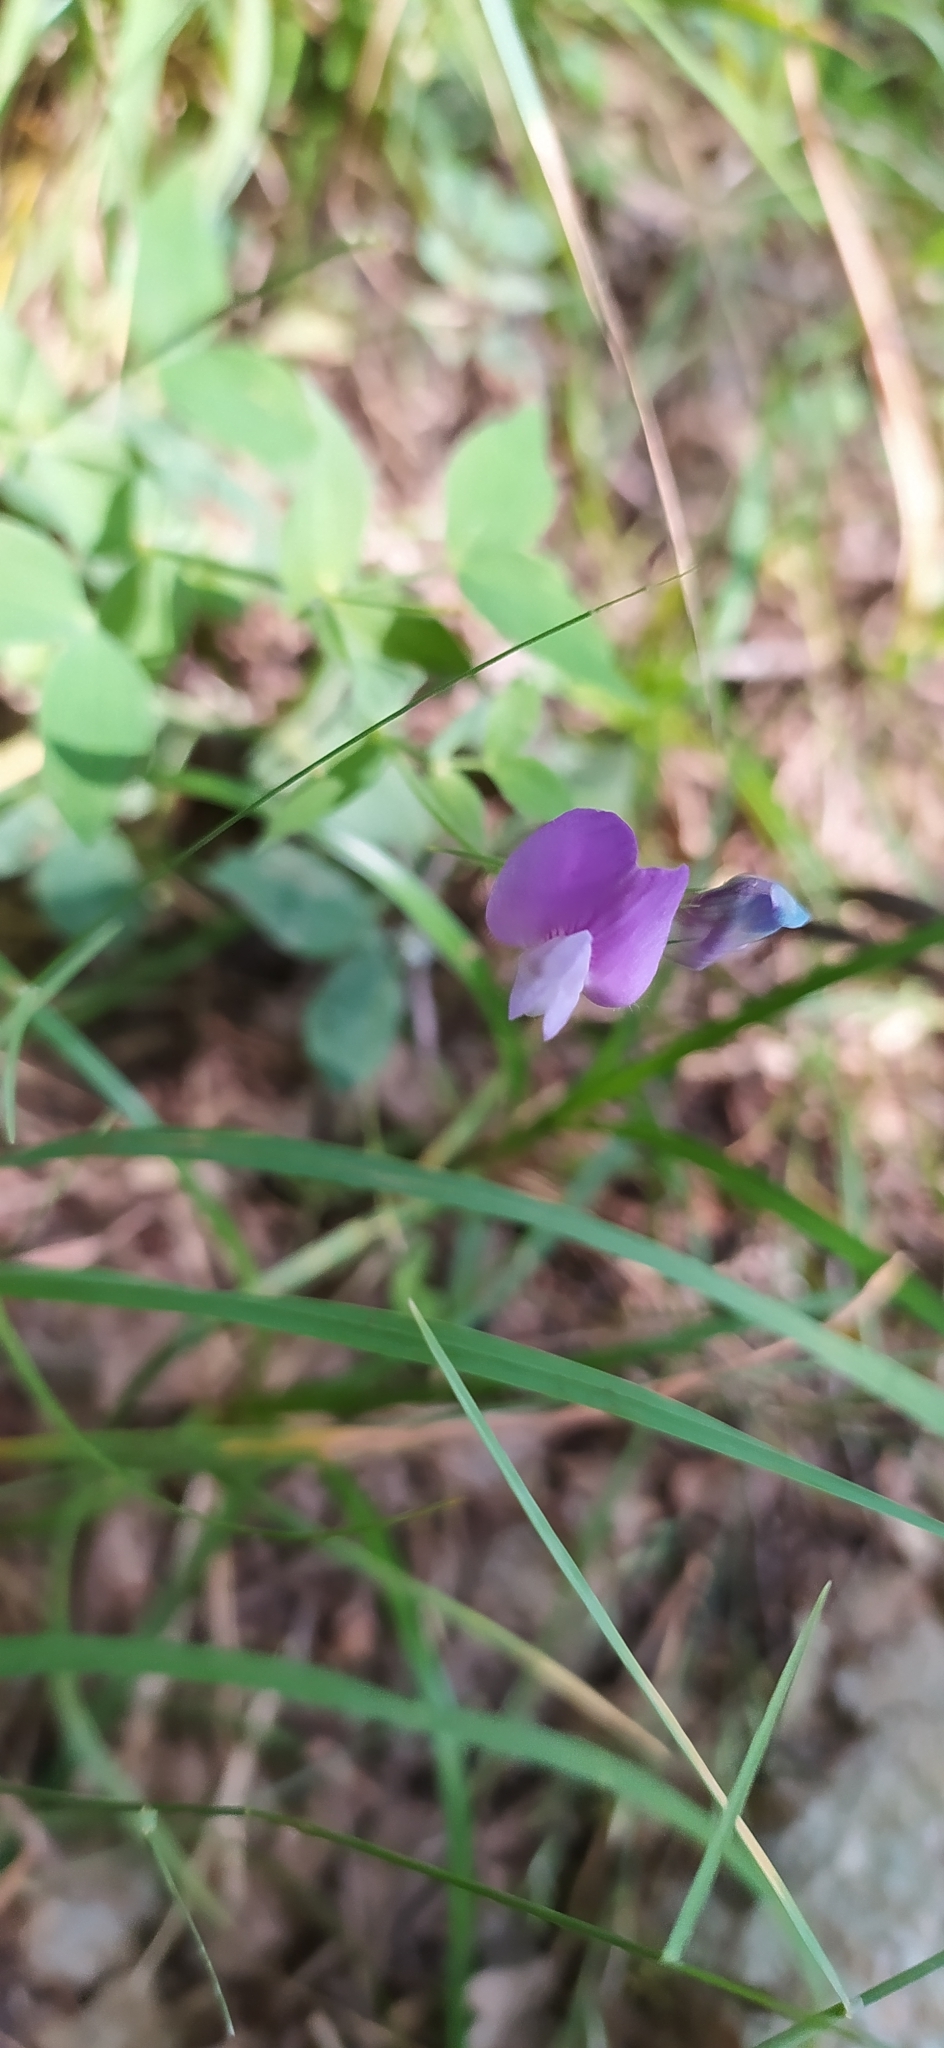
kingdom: Plantae
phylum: Tracheophyta
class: Magnoliopsida
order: Fabales
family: Fabaceae
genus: Lathyrus
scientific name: Lathyrus laxiflorus
